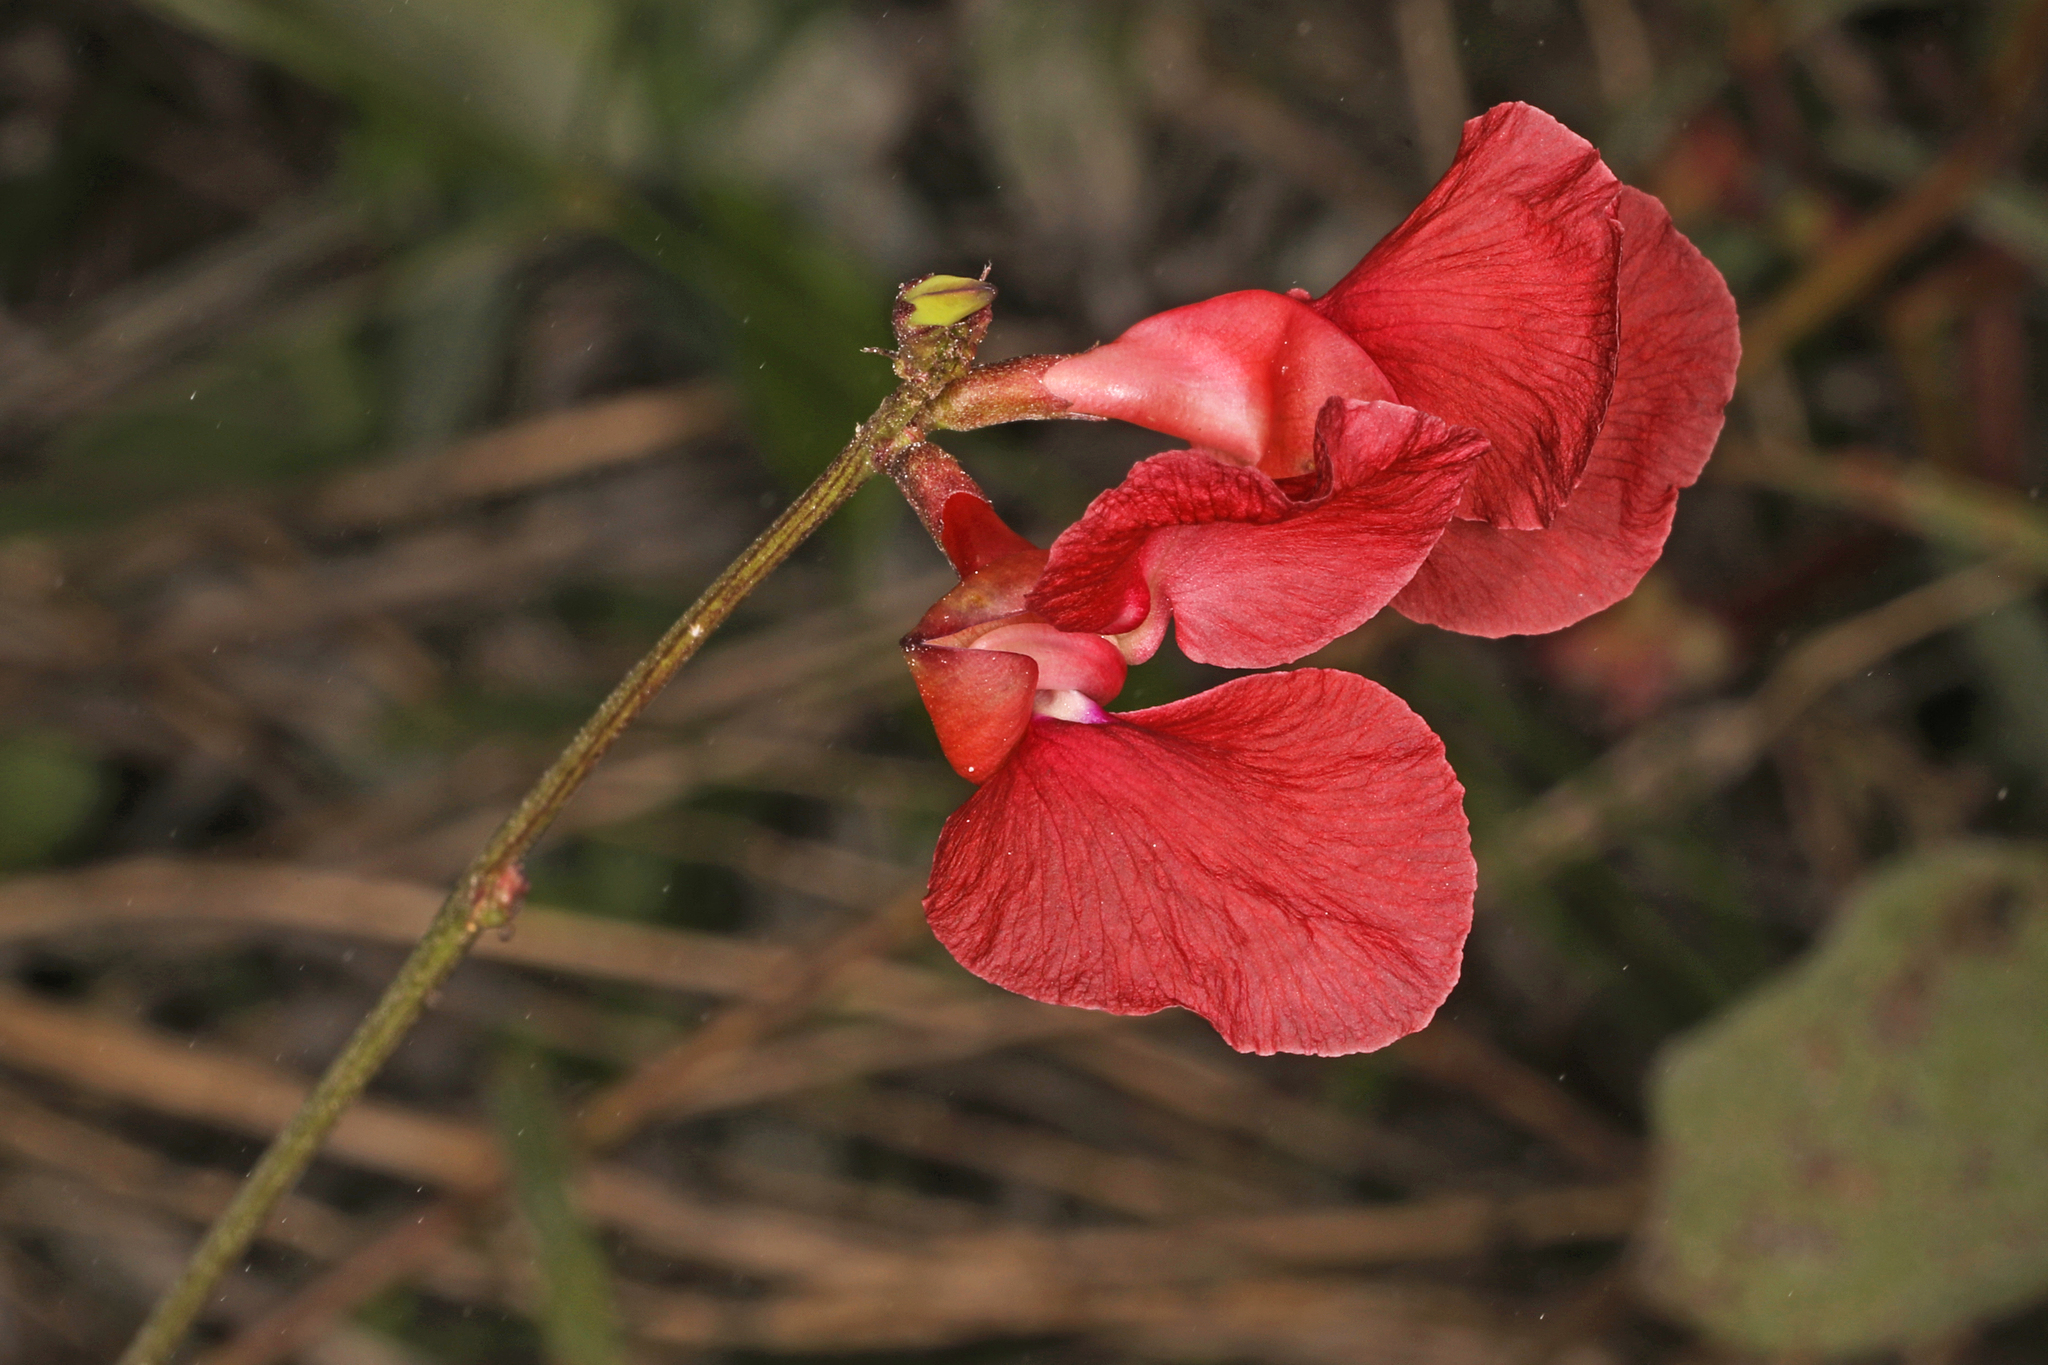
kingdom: Plantae
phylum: Tracheophyta
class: Magnoliopsida
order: Fabales
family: Fabaceae
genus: Macroptilium
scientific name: Macroptilium lathyroides
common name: Wild bushbean
